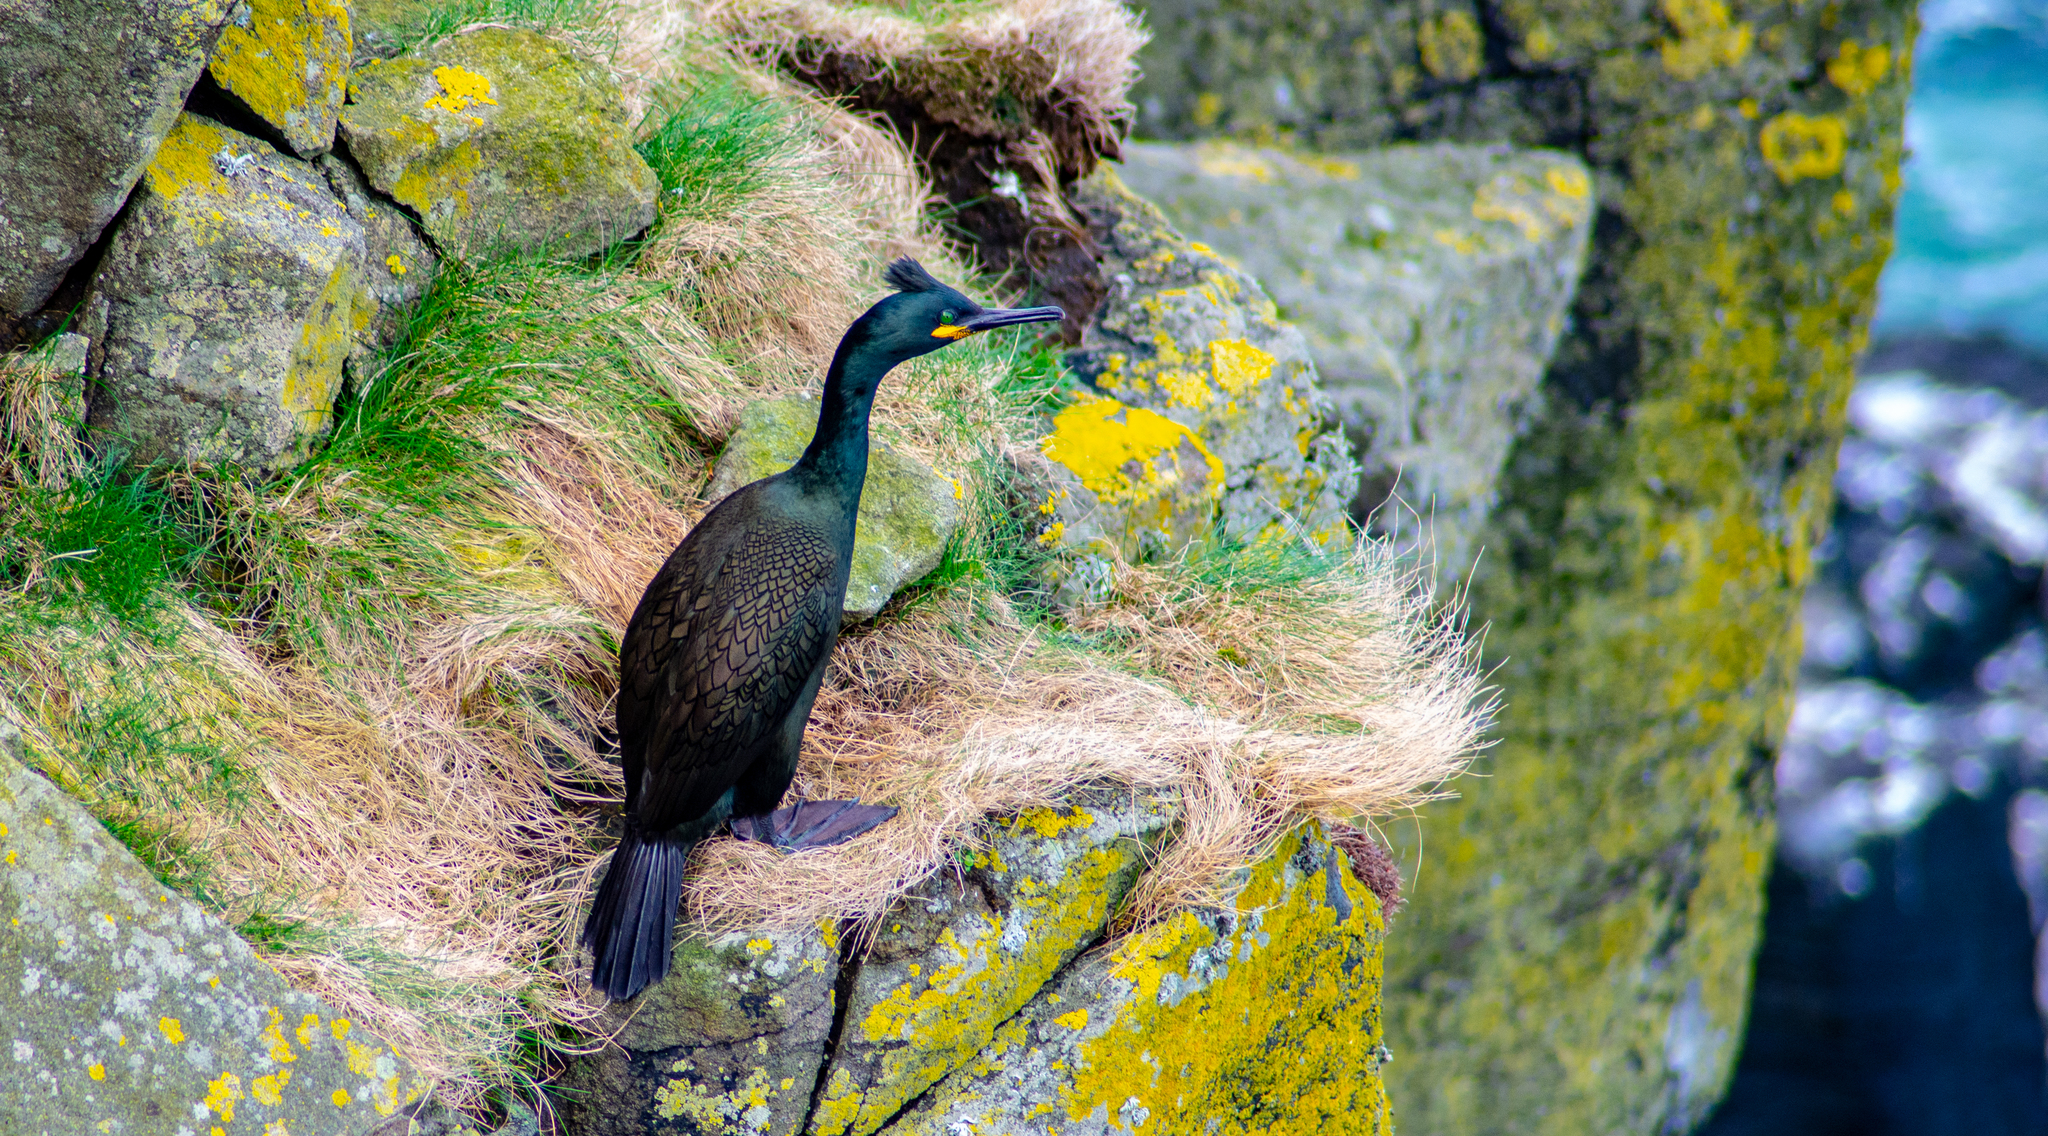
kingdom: Animalia
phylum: Chordata
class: Aves
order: Suliformes
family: Phalacrocoracidae
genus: Phalacrocorax
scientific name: Phalacrocorax aristotelis
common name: European shag
